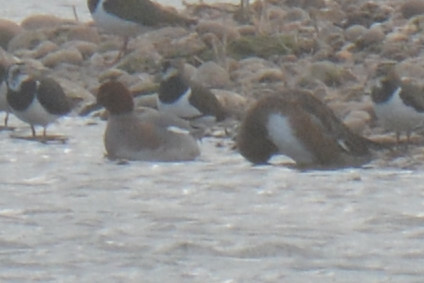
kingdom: Animalia
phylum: Chordata
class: Aves
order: Anseriformes
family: Anatidae
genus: Mareca
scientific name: Mareca penelope
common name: Eurasian wigeon
